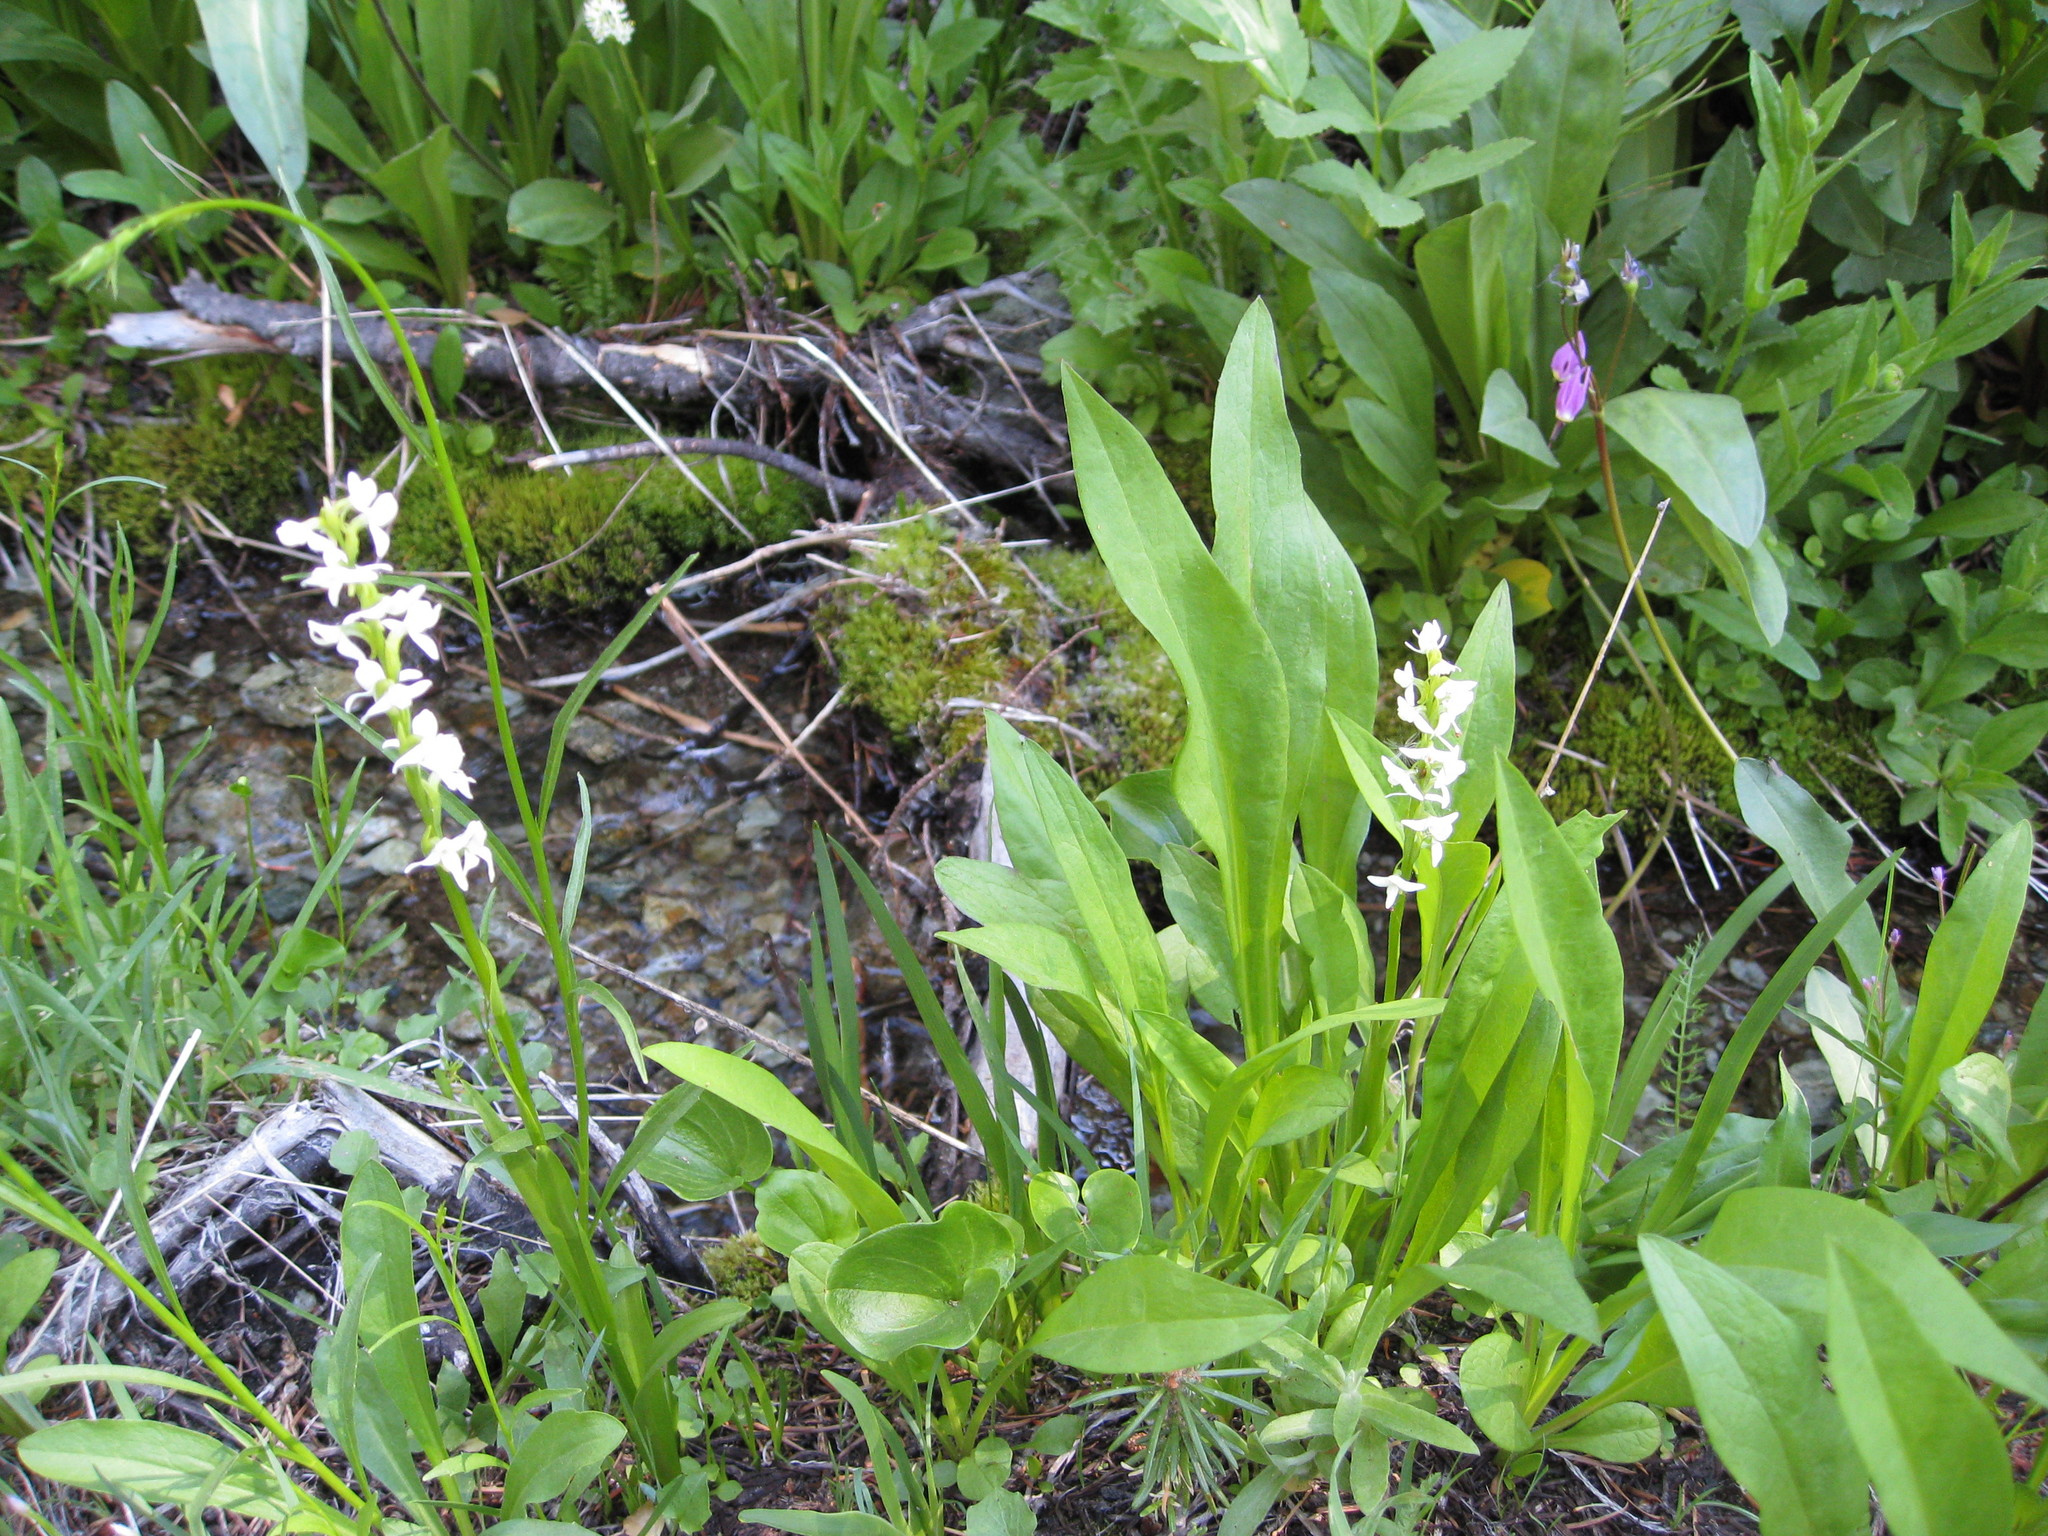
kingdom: Plantae
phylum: Tracheophyta
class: Liliopsida
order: Asparagales
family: Orchidaceae
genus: Platanthera
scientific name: Platanthera dilatata
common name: Bog candles
